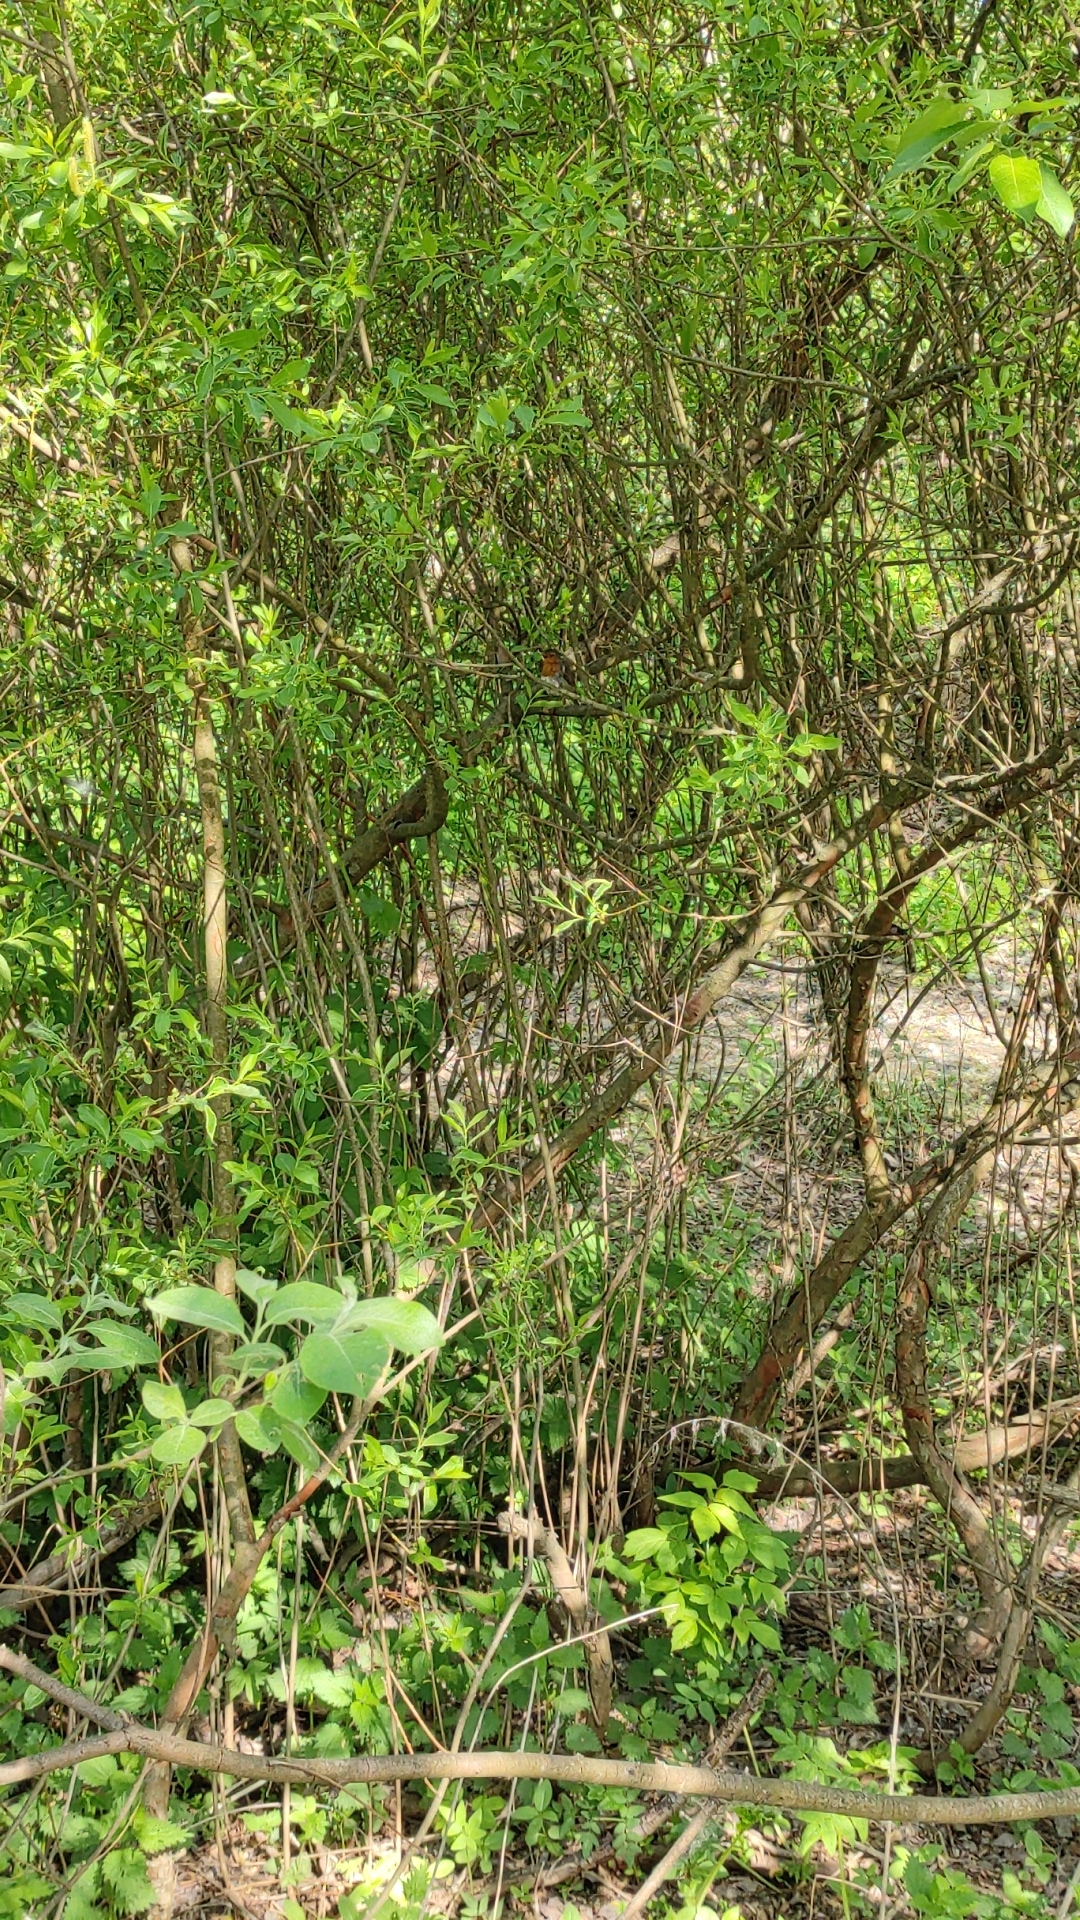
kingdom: Animalia
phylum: Chordata
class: Aves
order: Passeriformes
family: Muscicapidae
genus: Erithacus
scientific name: Erithacus rubecula
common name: European robin
